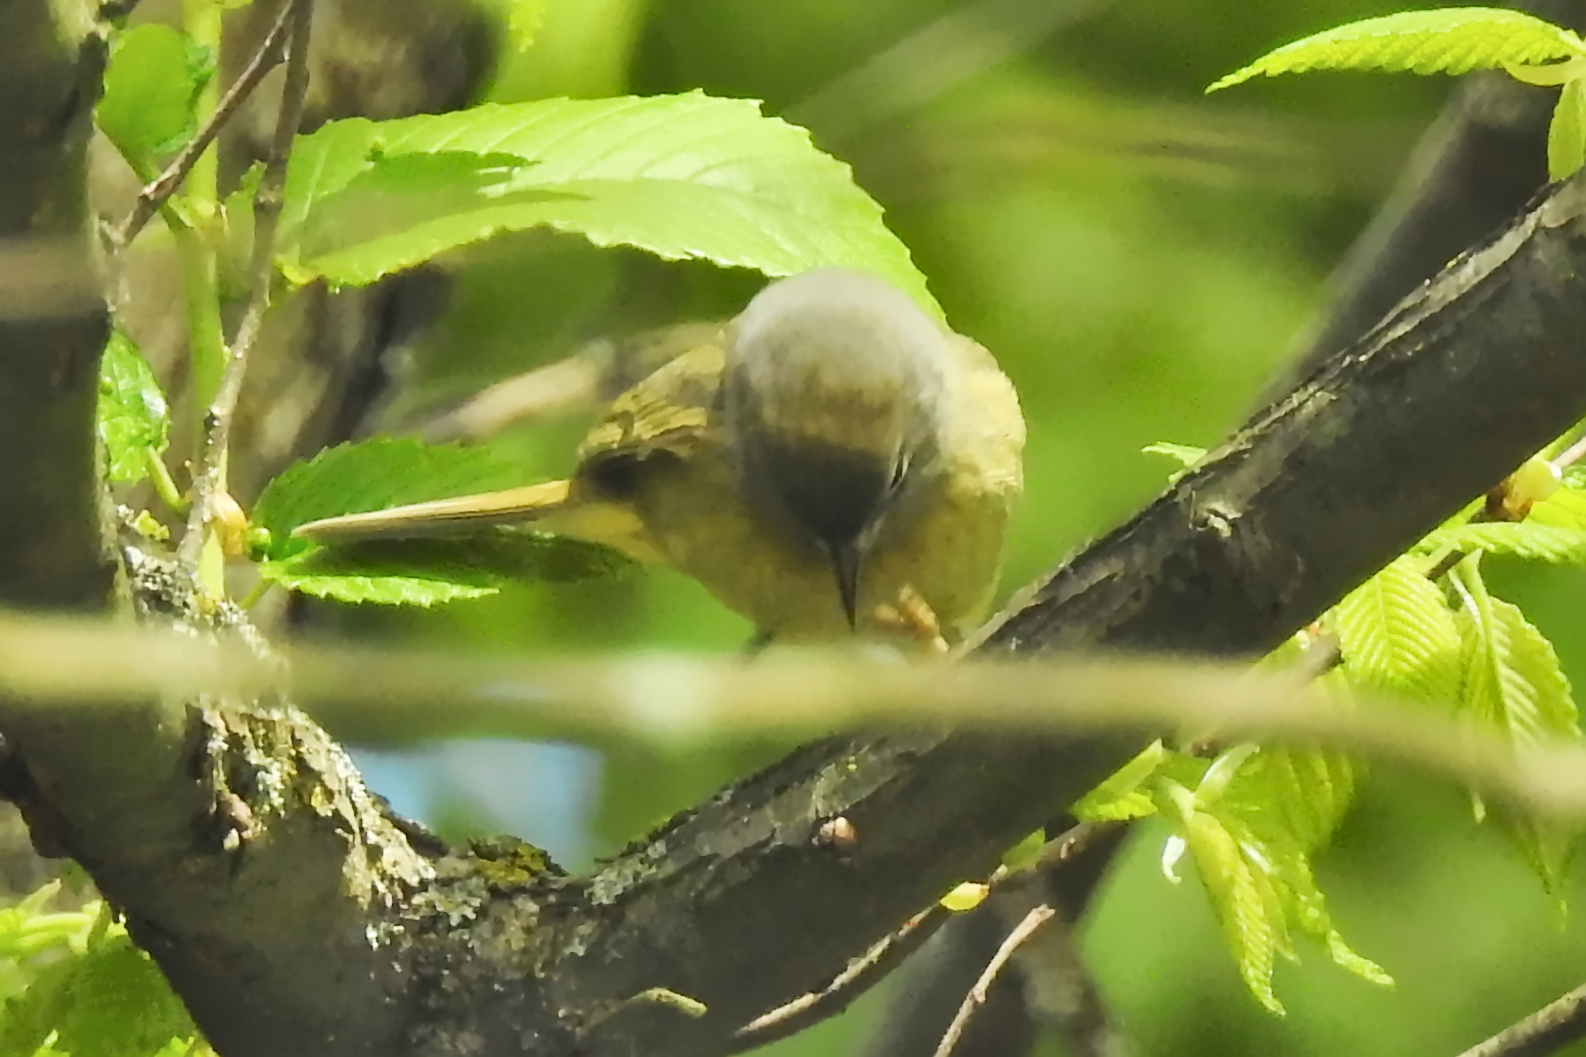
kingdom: Animalia
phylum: Chordata
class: Aves
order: Passeriformes
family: Parulidae
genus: Leiothlypis
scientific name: Leiothlypis celata
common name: Orange-crowned warbler
